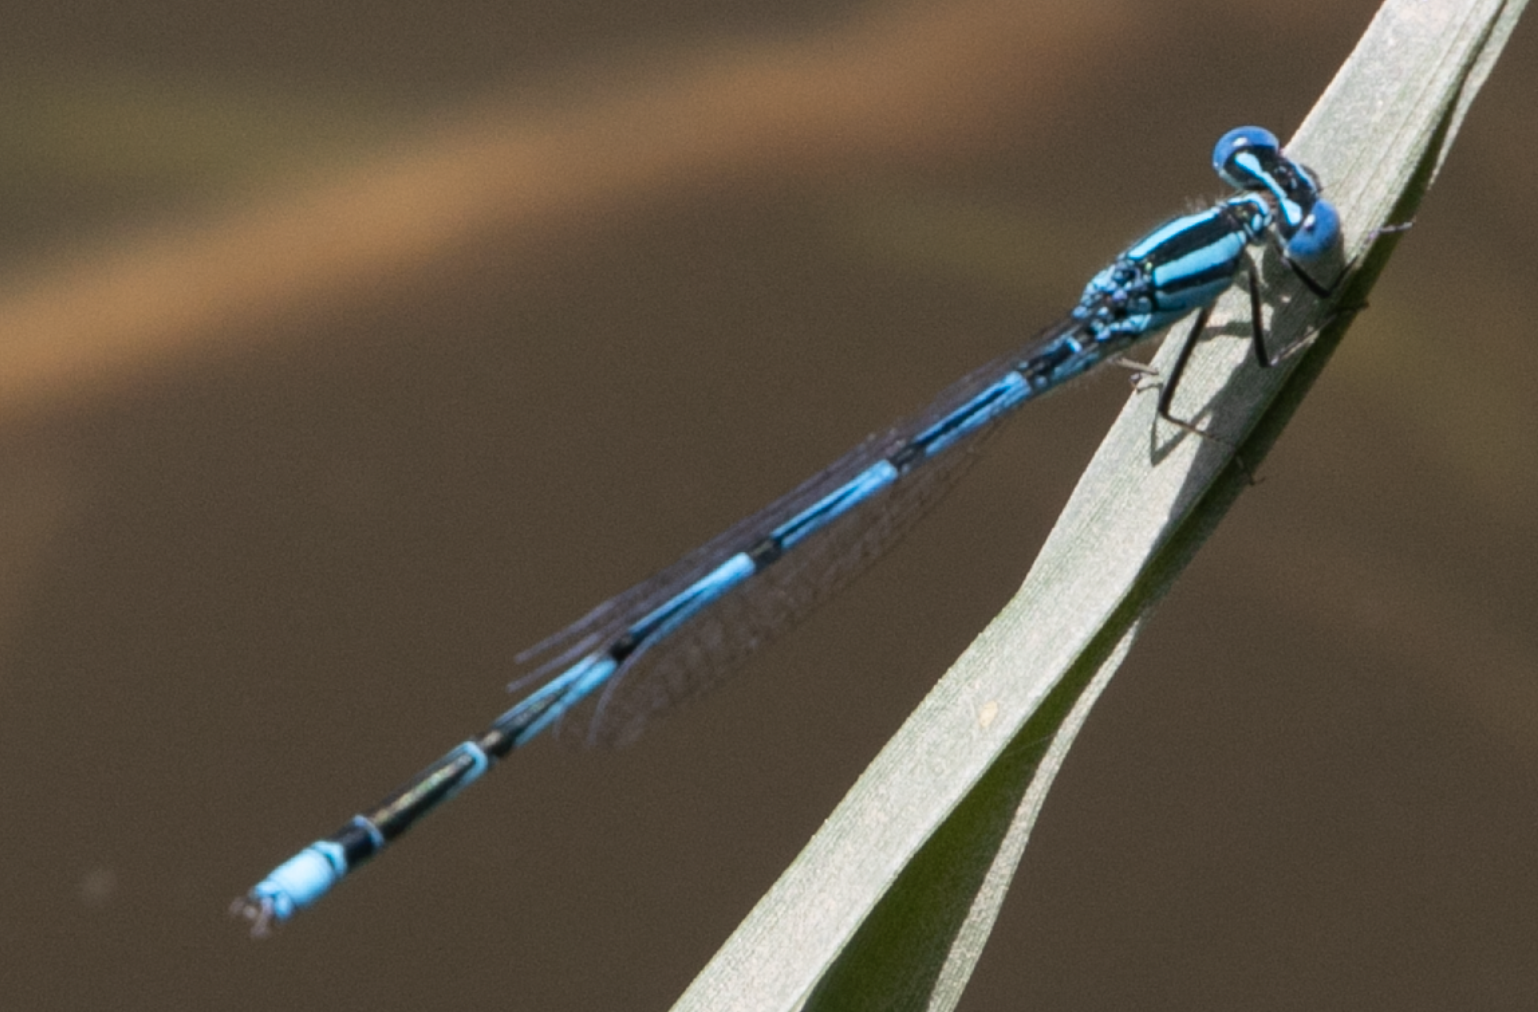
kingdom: Animalia
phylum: Arthropoda
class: Insecta
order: Odonata
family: Coenagrionidae
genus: Erythromma
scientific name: Erythromma lindenii
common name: Blue-eye
